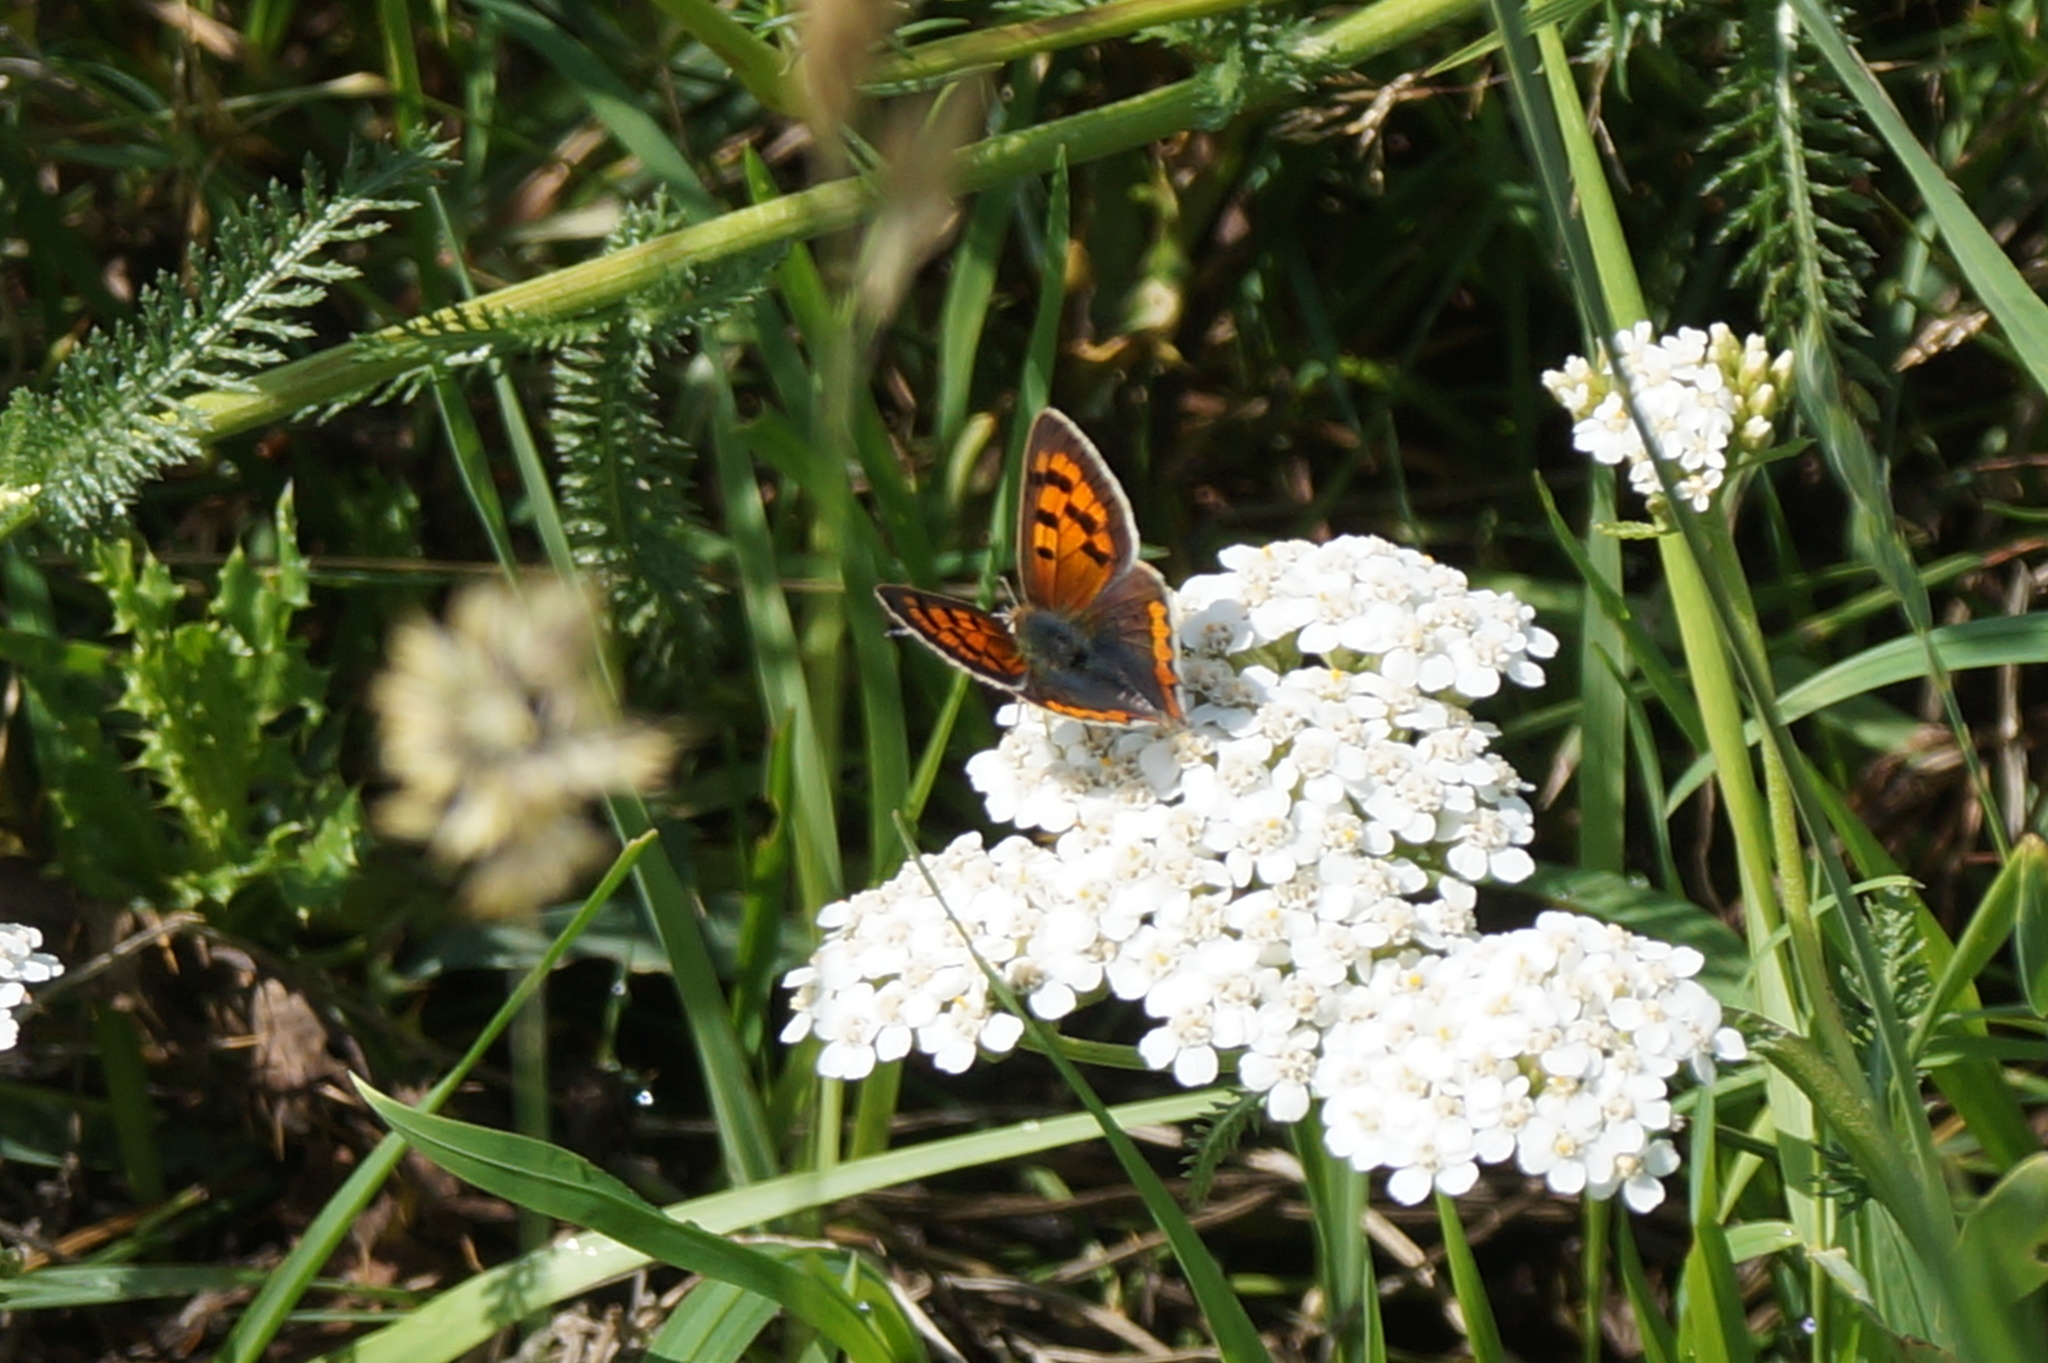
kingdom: Animalia
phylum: Arthropoda
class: Insecta
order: Lepidoptera
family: Lycaenidae
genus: Lycaena
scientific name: Lycaena phlaeas
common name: Small copper
